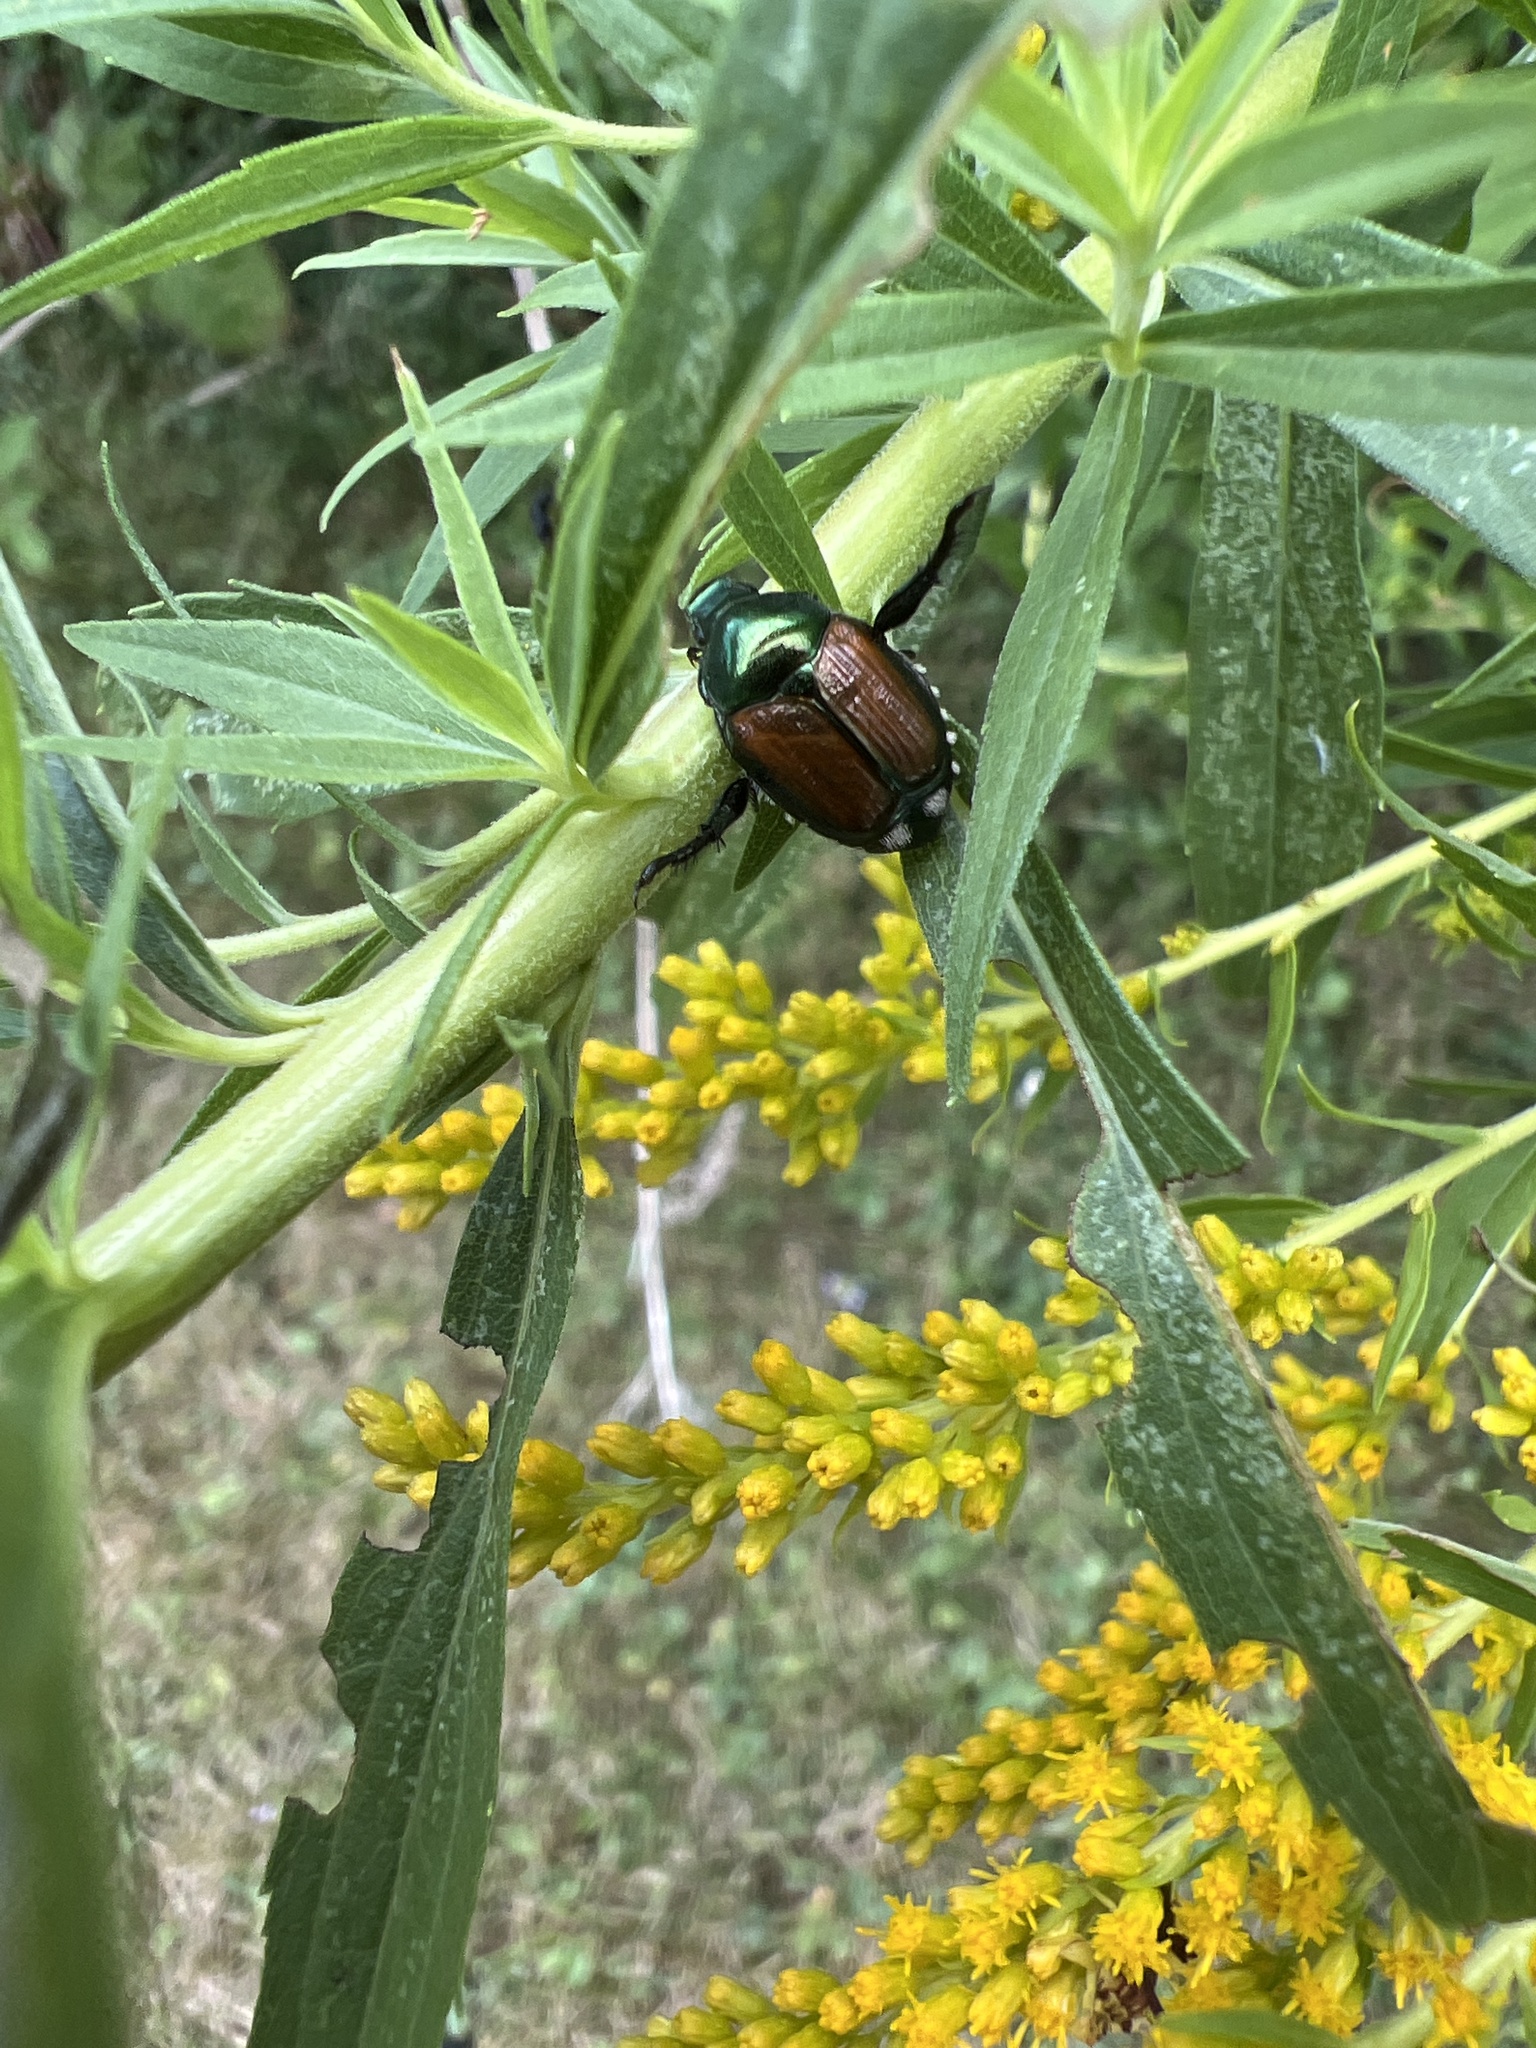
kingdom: Animalia
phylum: Arthropoda
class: Insecta
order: Coleoptera
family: Scarabaeidae
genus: Popillia
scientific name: Popillia japonica
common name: Japanese beetle
